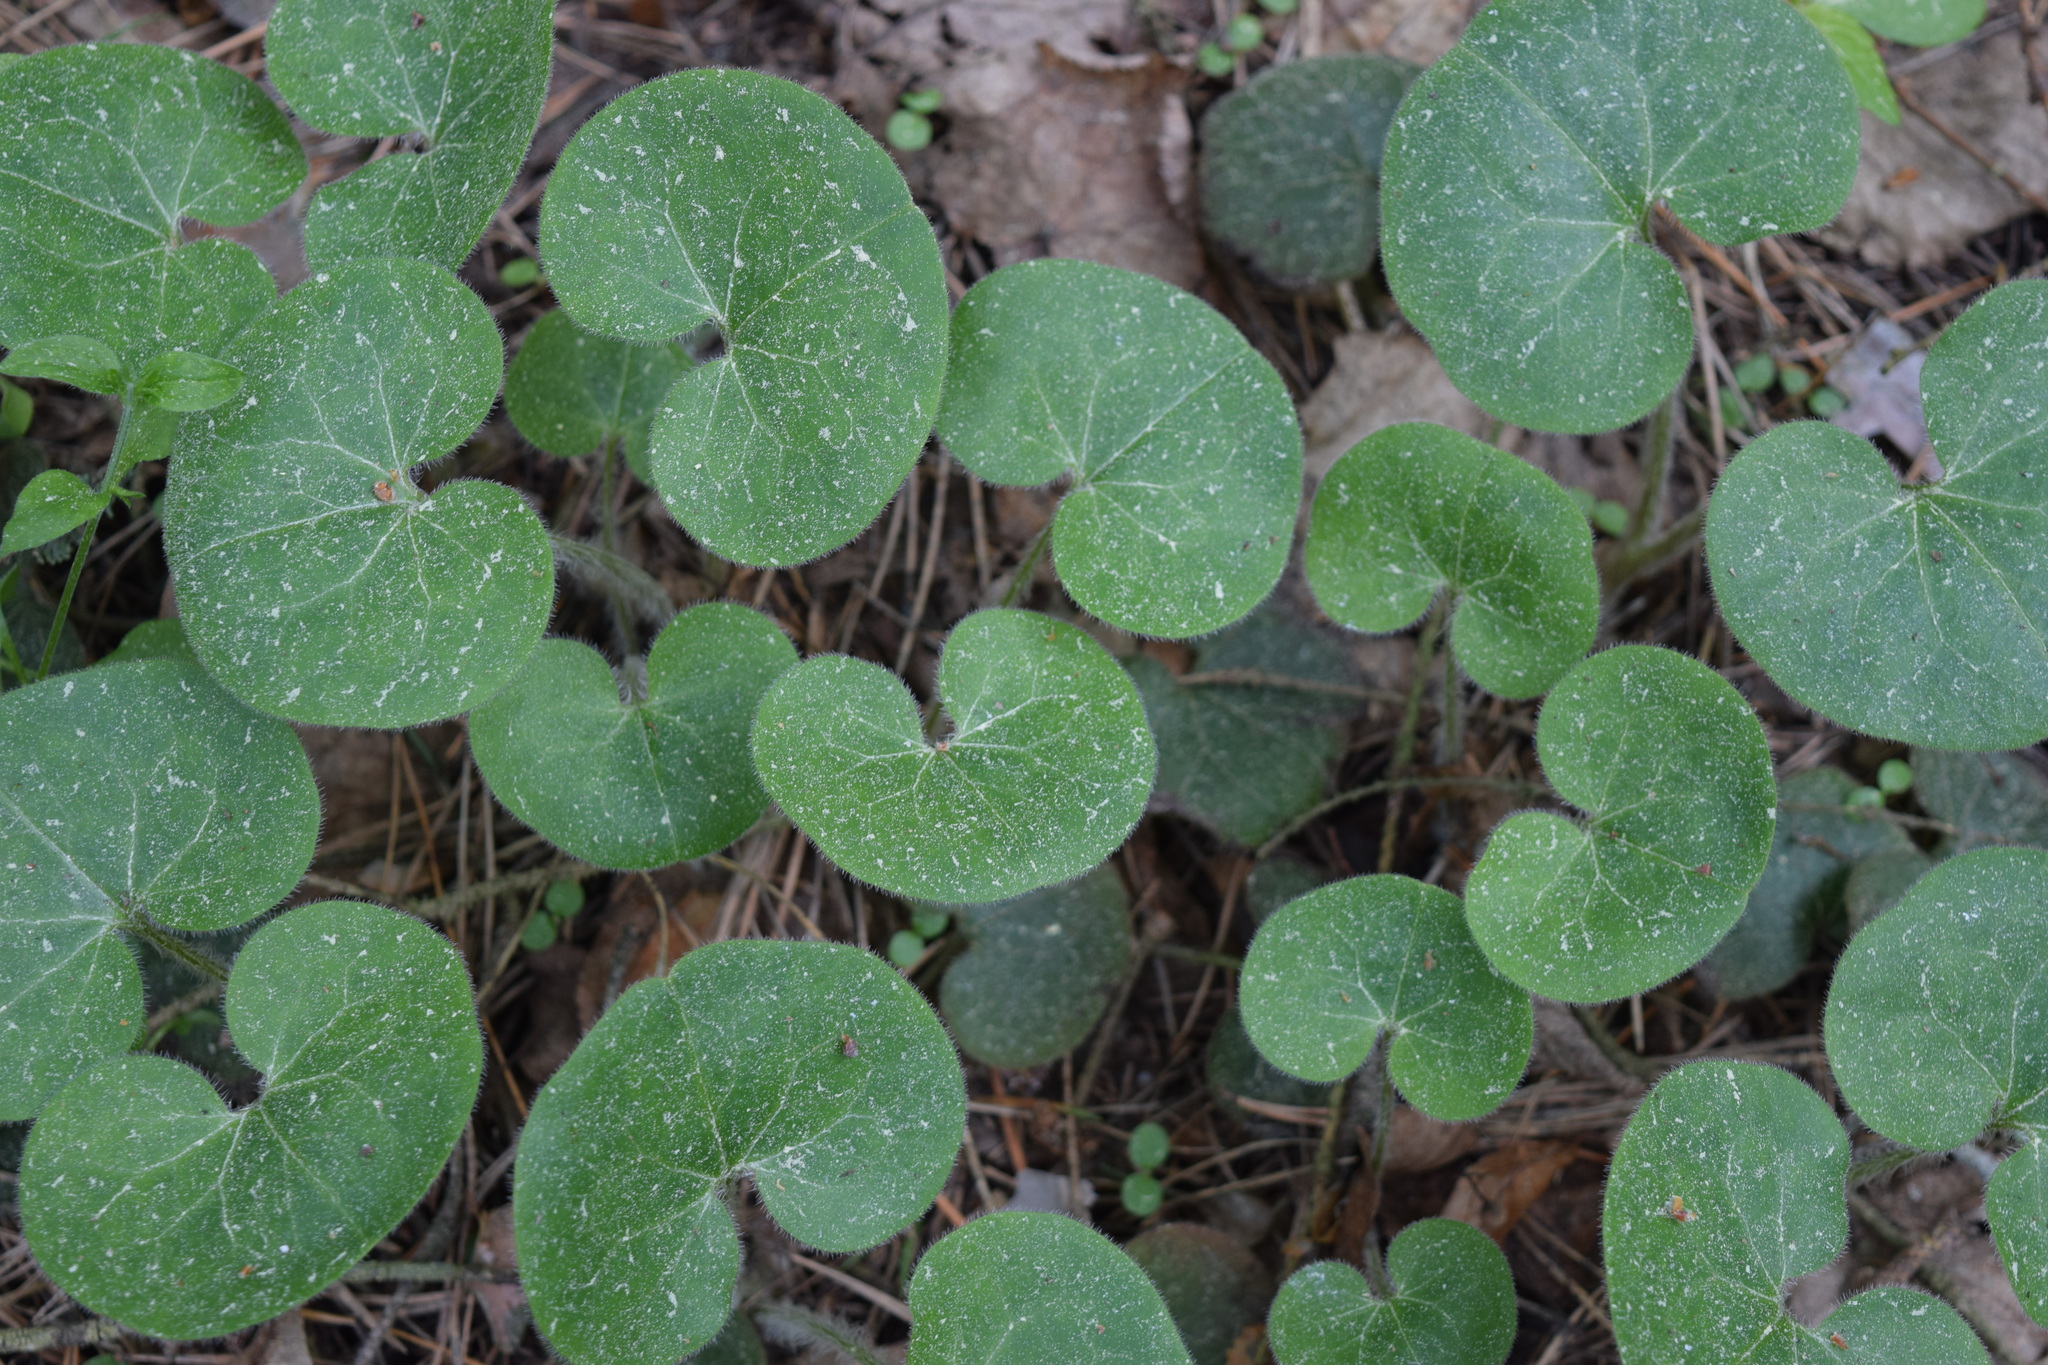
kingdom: Plantae
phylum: Tracheophyta
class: Magnoliopsida
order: Piperales
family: Aristolochiaceae
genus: Asarum
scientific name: Asarum europaeum
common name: Asarabacca
